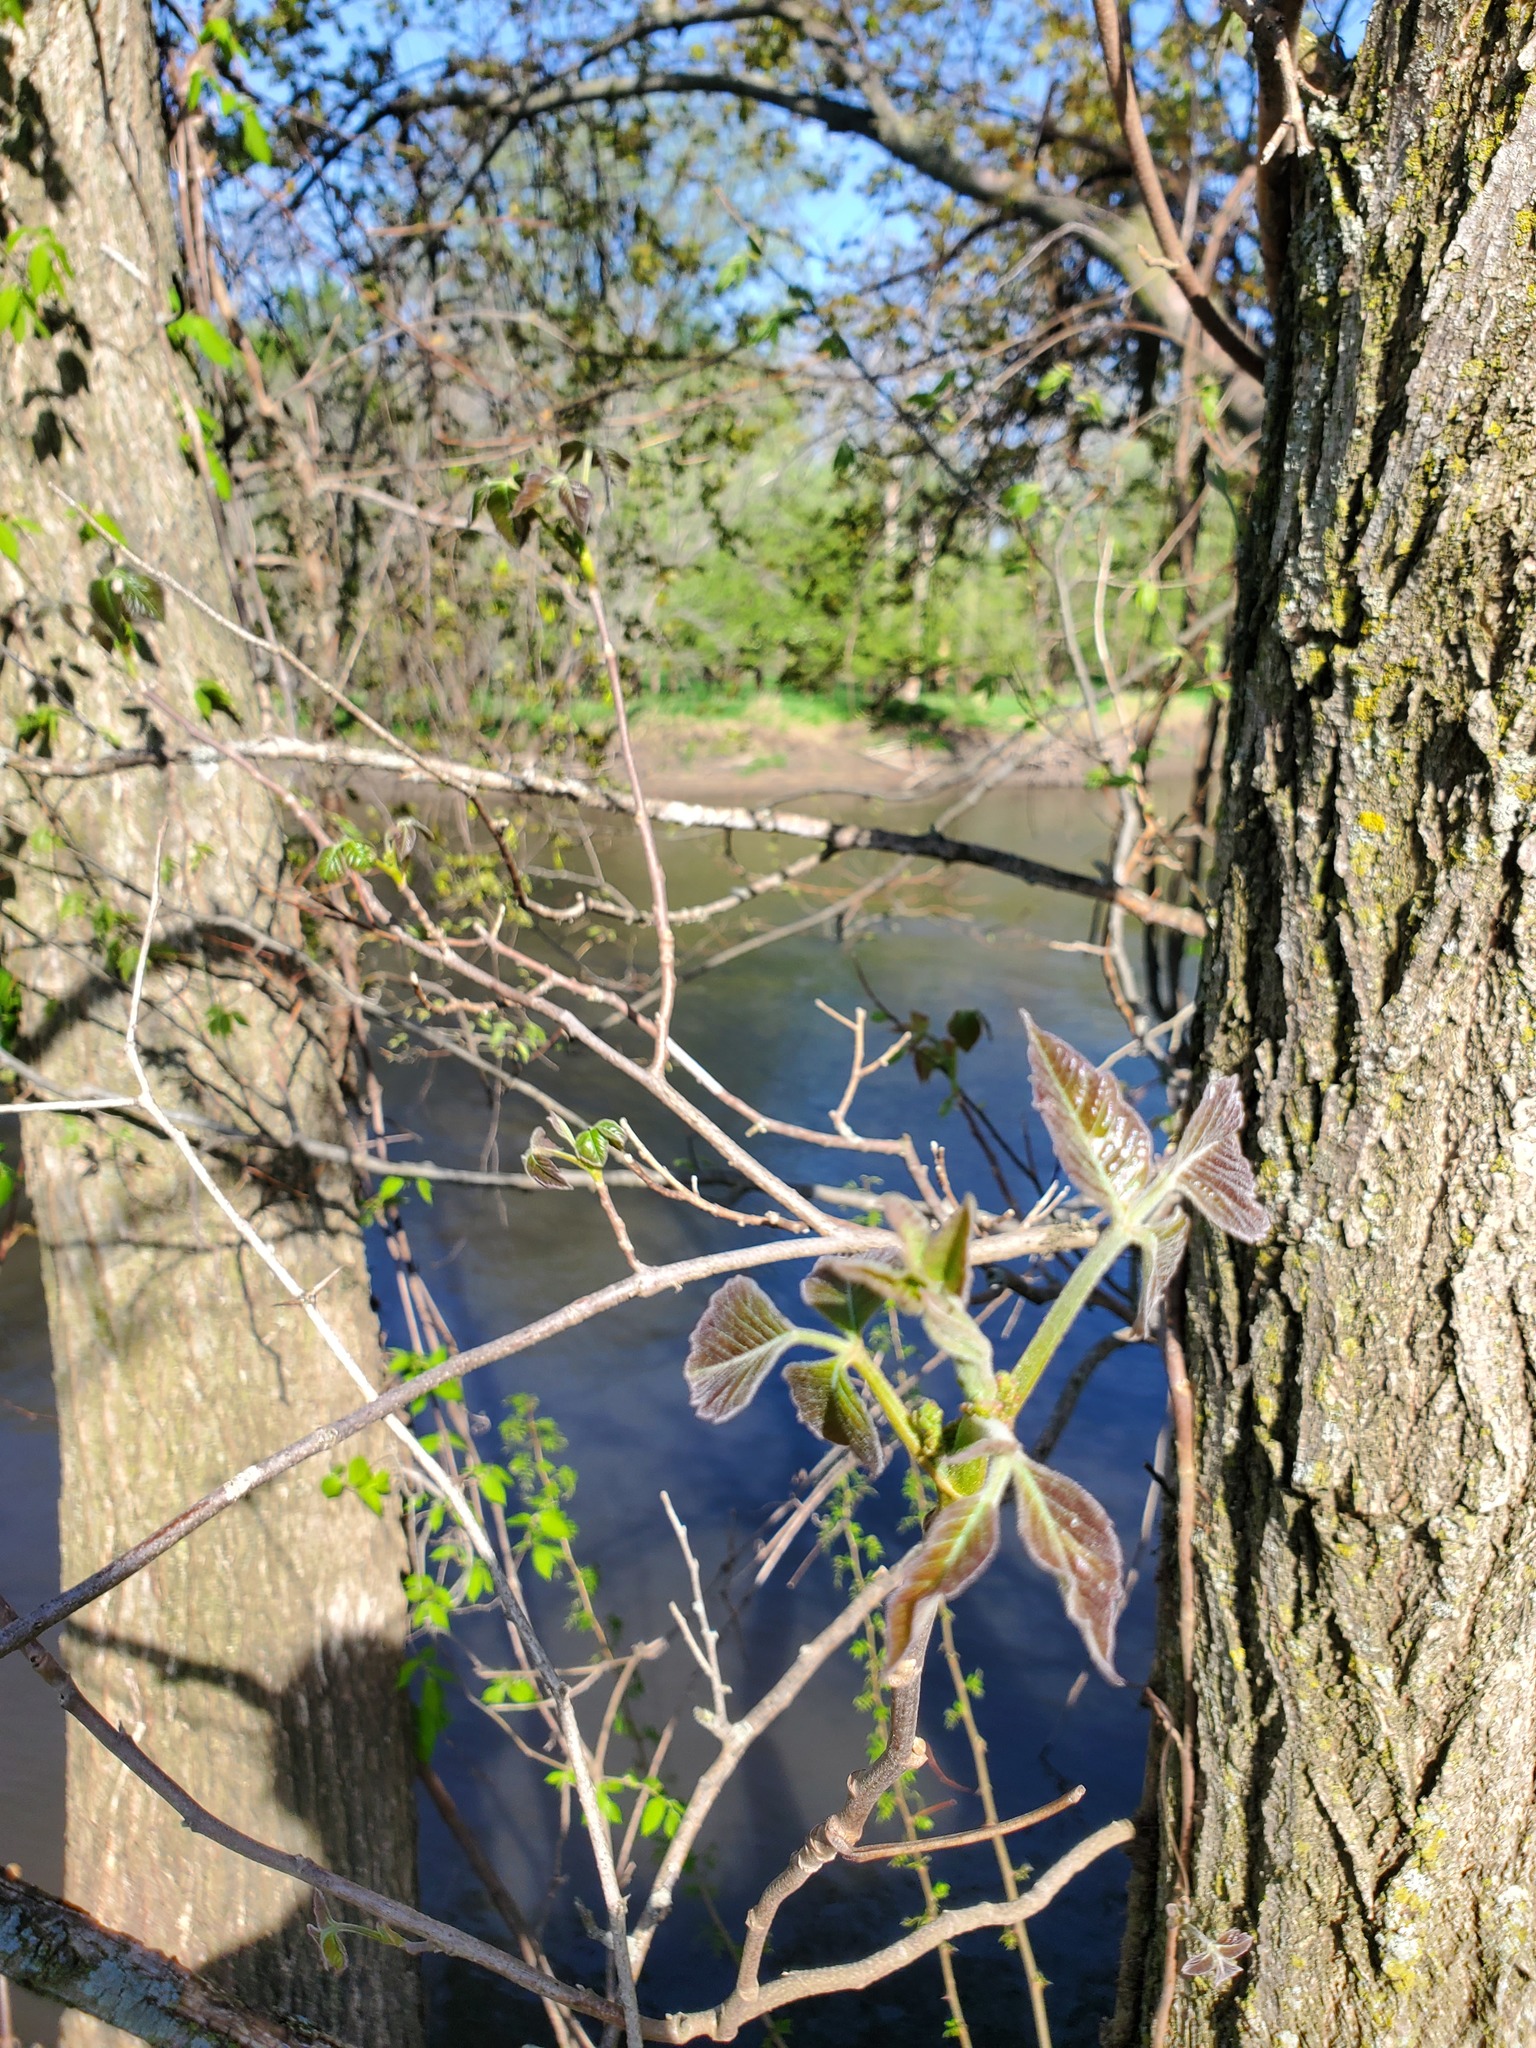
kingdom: Plantae
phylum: Tracheophyta
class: Magnoliopsida
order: Sapindales
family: Anacardiaceae
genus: Toxicodendron
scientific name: Toxicodendron radicans
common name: Poison ivy
